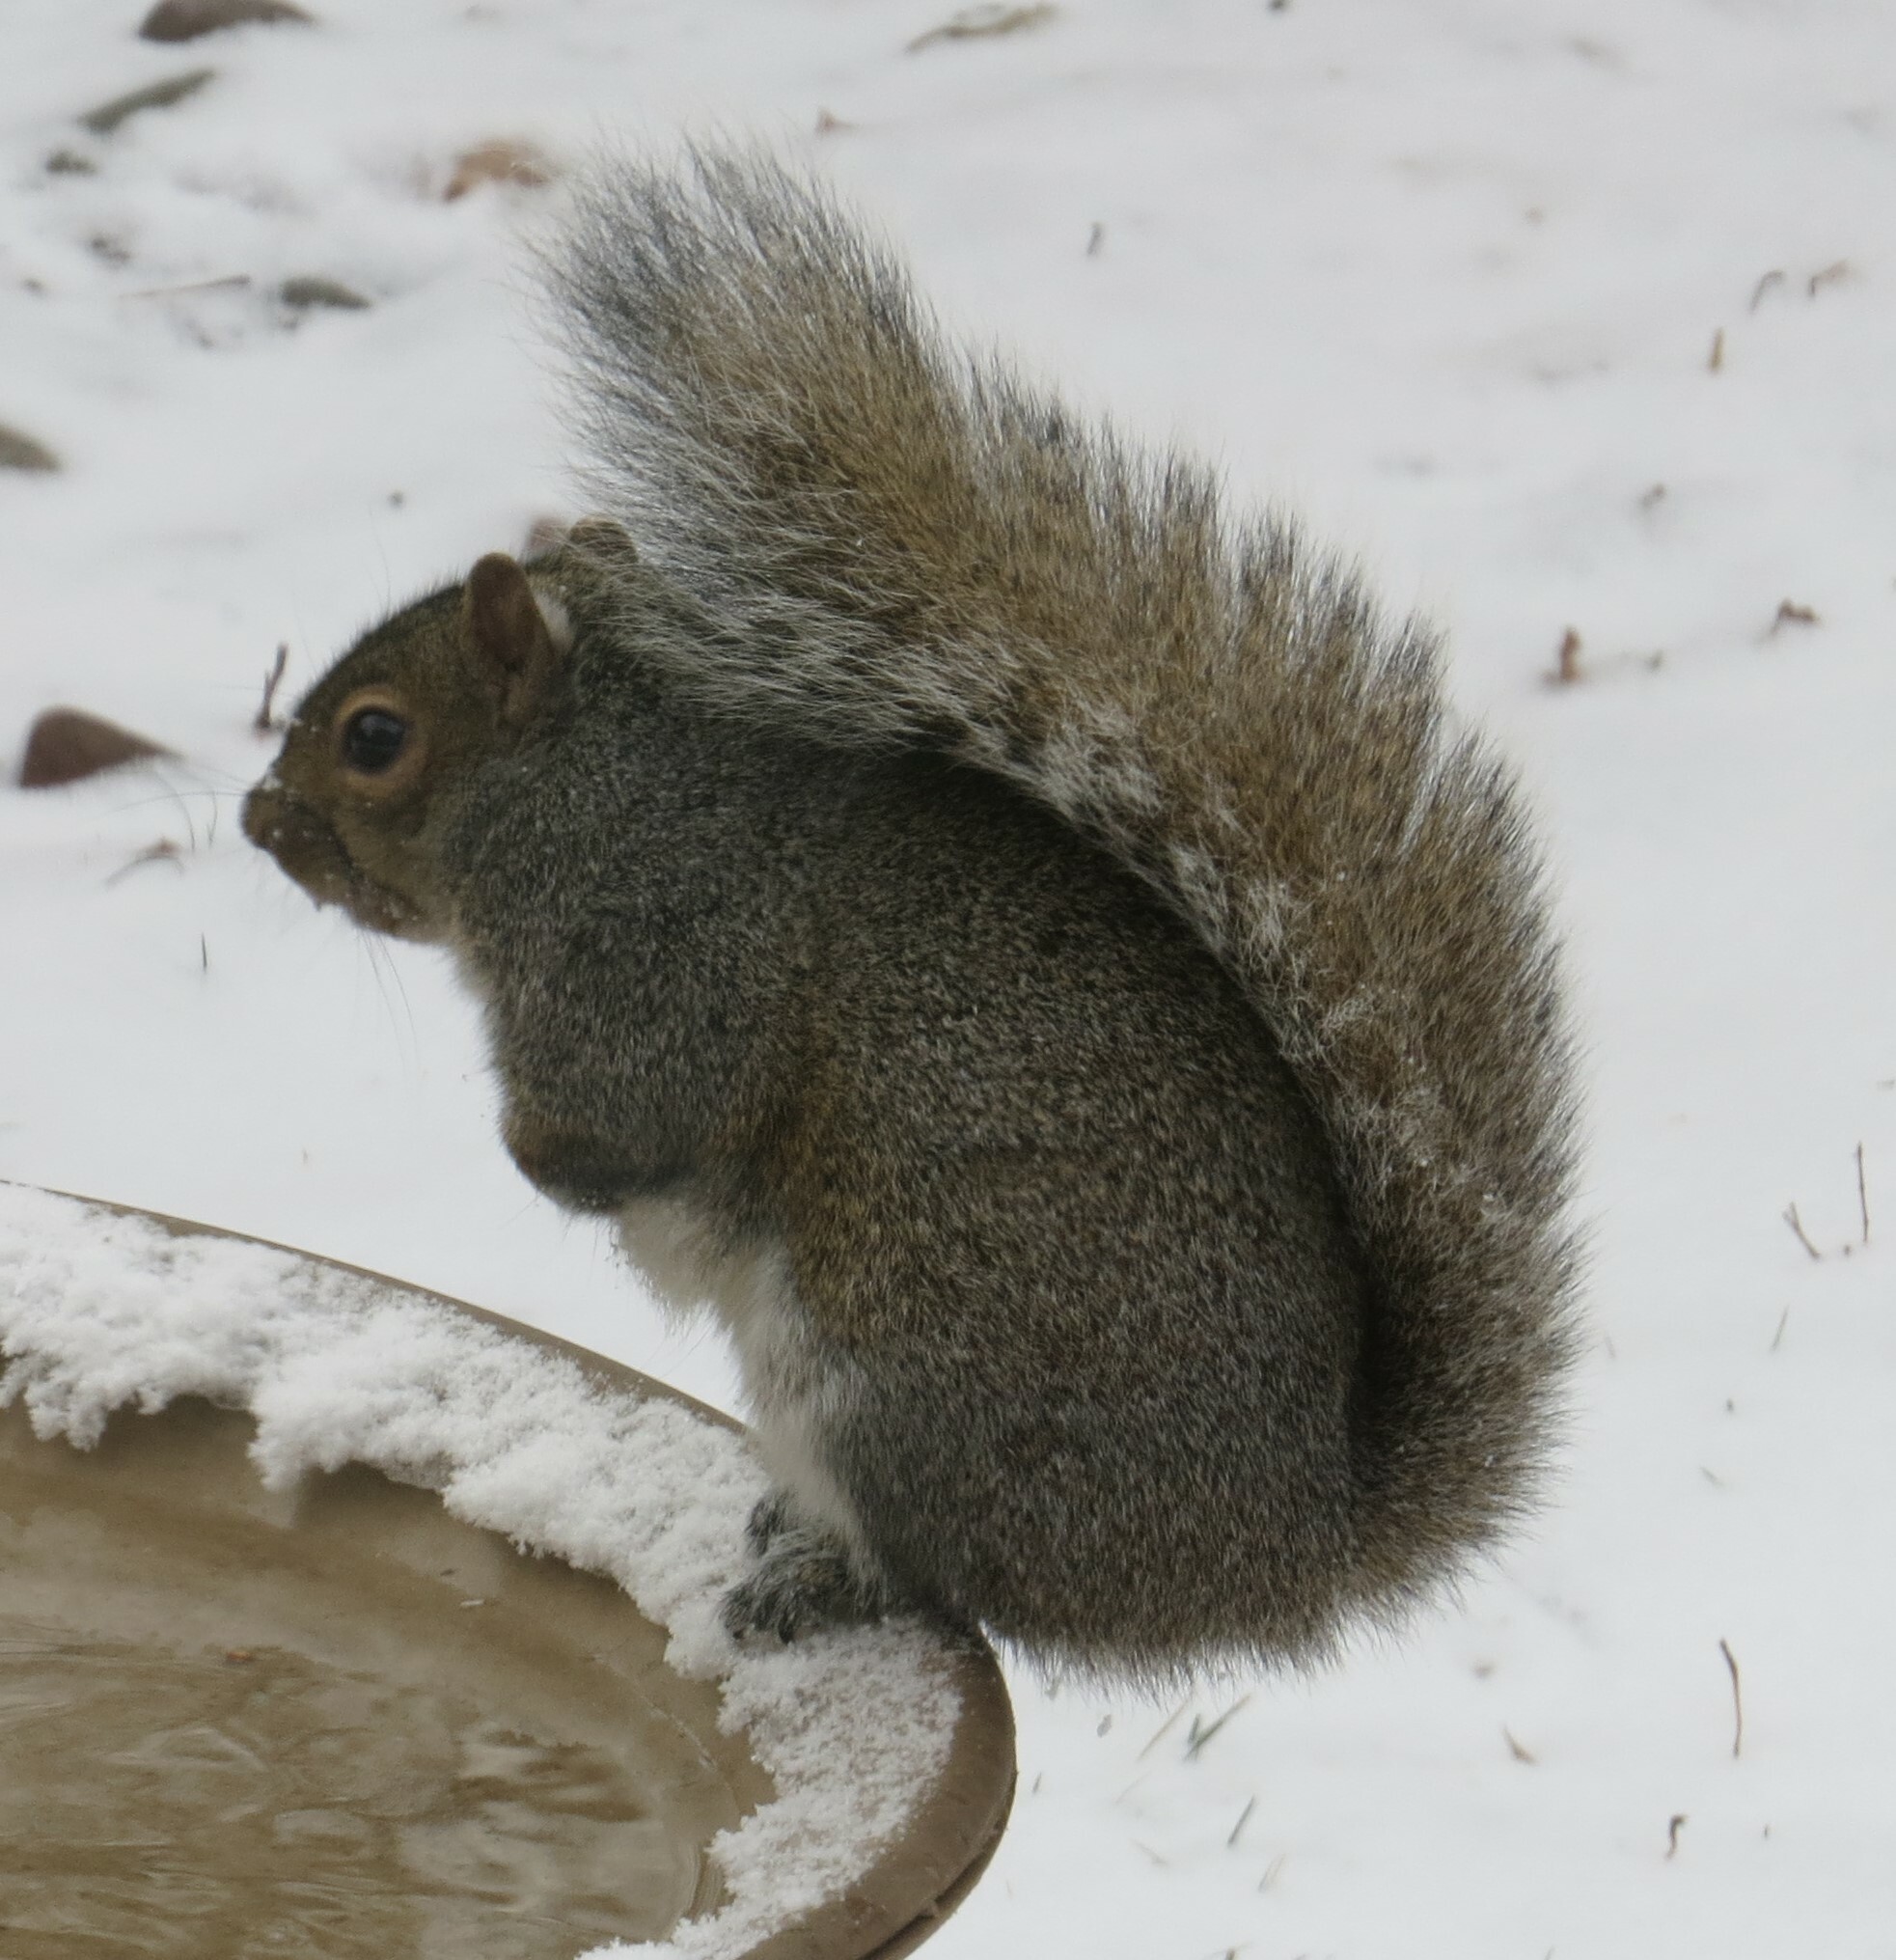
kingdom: Animalia
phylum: Chordata
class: Mammalia
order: Rodentia
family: Sciuridae
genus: Sciurus
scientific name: Sciurus carolinensis
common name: Eastern gray squirrel
